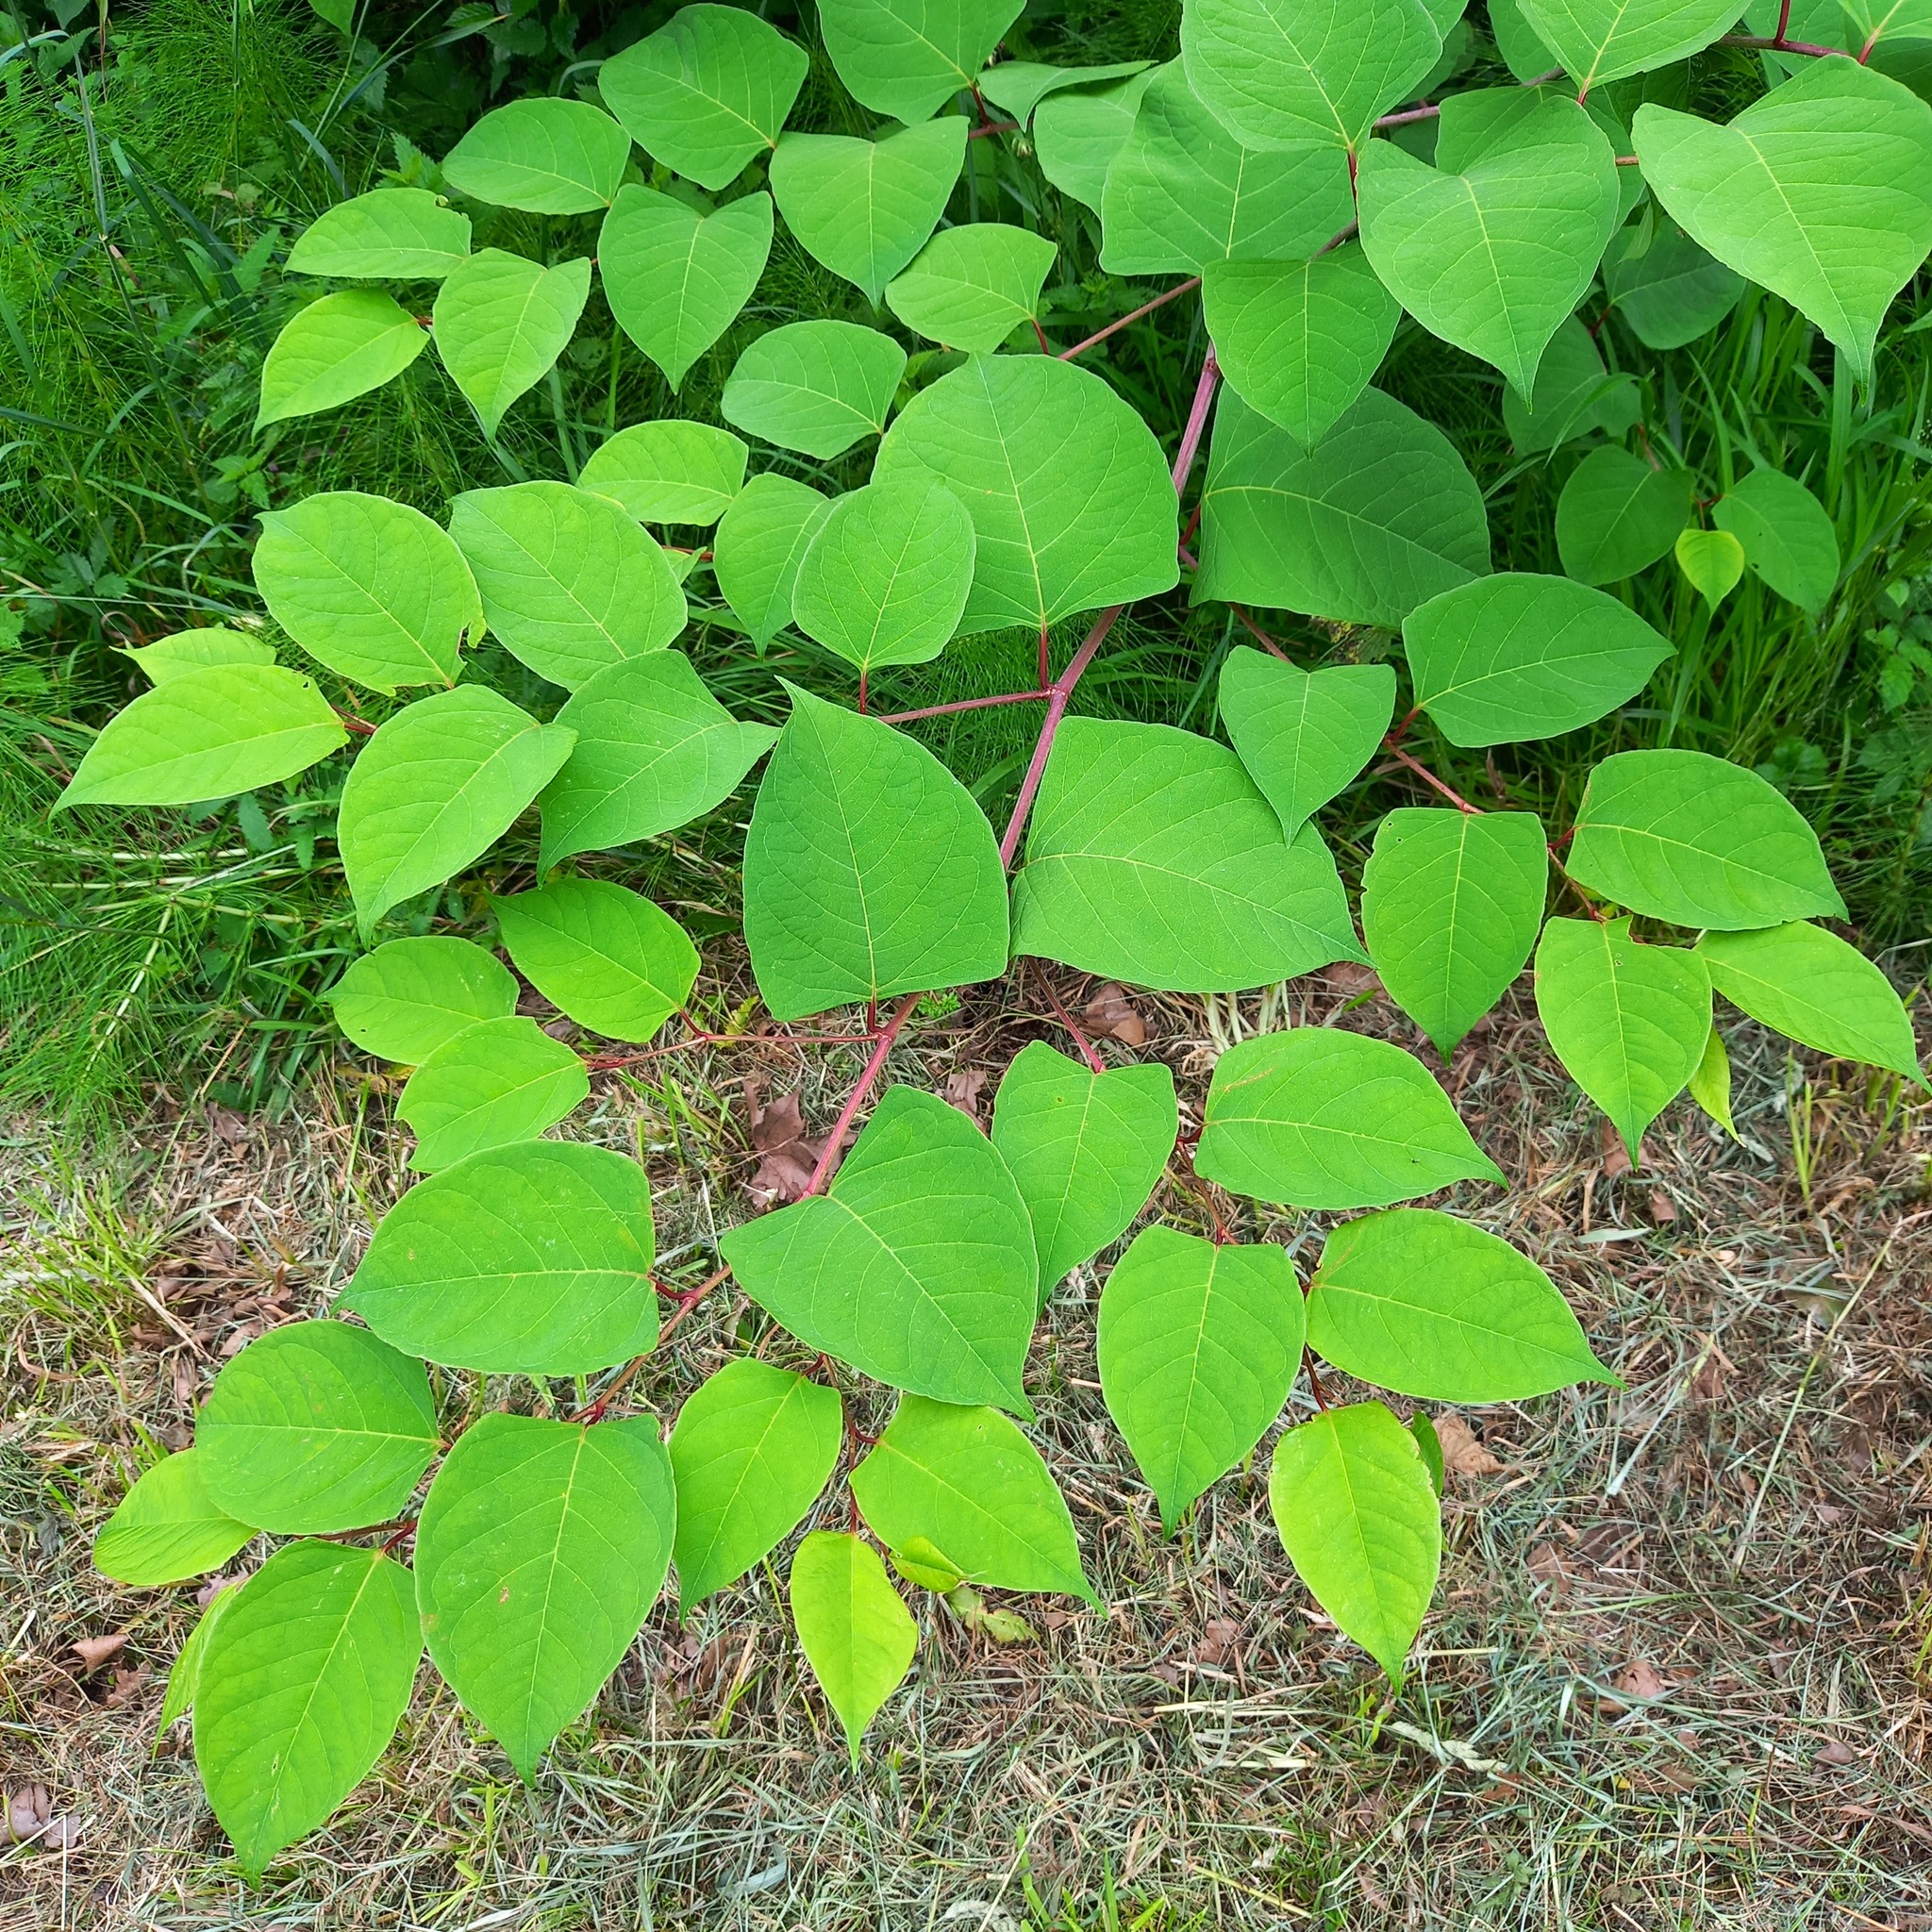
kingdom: Plantae
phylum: Tracheophyta
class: Magnoliopsida
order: Caryophyllales
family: Polygonaceae
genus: Reynoutria
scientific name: Reynoutria japonica
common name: Japanese knotweed
